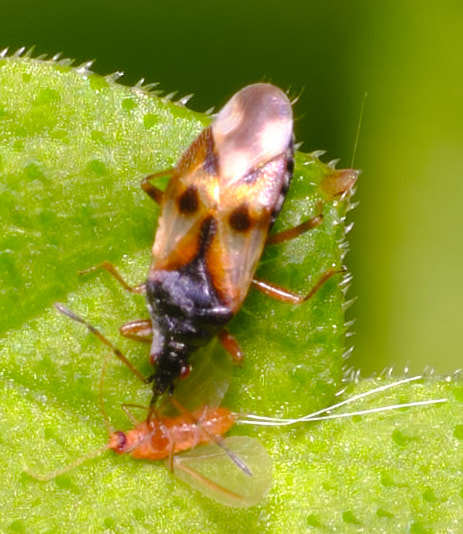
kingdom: Animalia
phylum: Arthropoda
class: Insecta
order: Hemiptera
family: Anthocoridae
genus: Anthocoris
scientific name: Anthocoris nemorum
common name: Minute pirate bug
